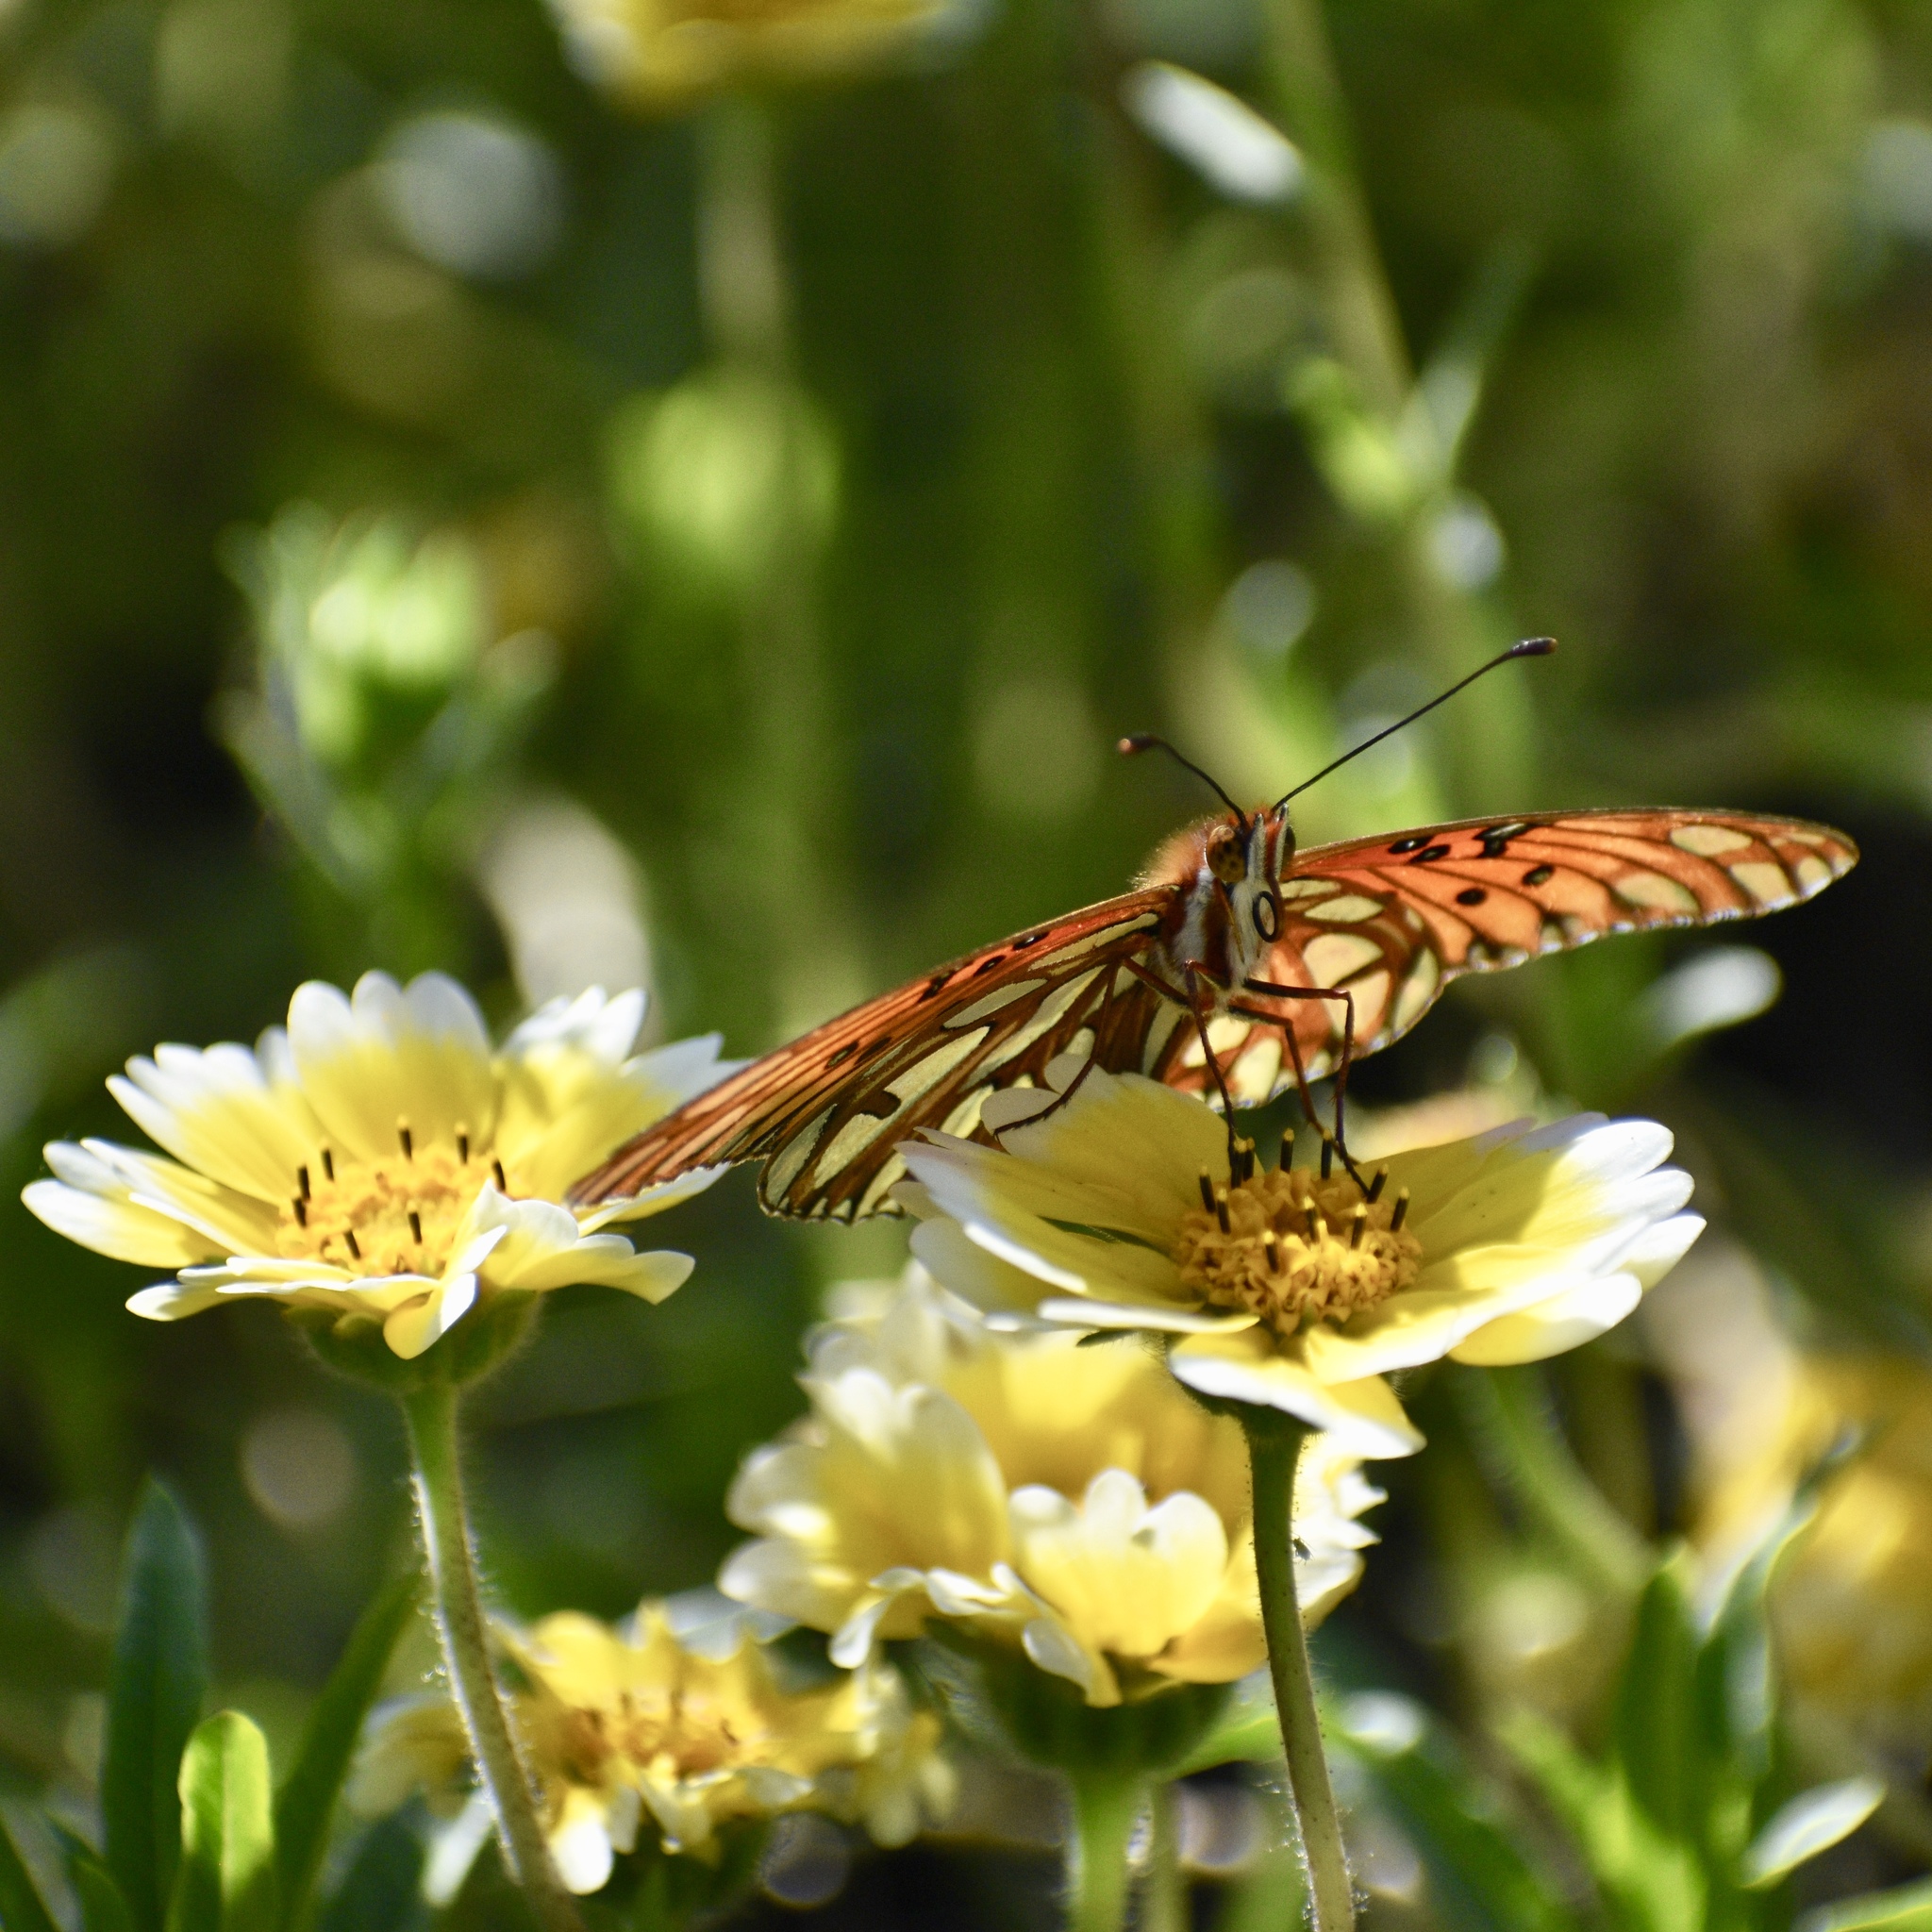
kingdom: Animalia
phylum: Arthropoda
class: Insecta
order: Lepidoptera
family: Nymphalidae
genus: Dione
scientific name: Dione vanillae
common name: Gulf fritillary
